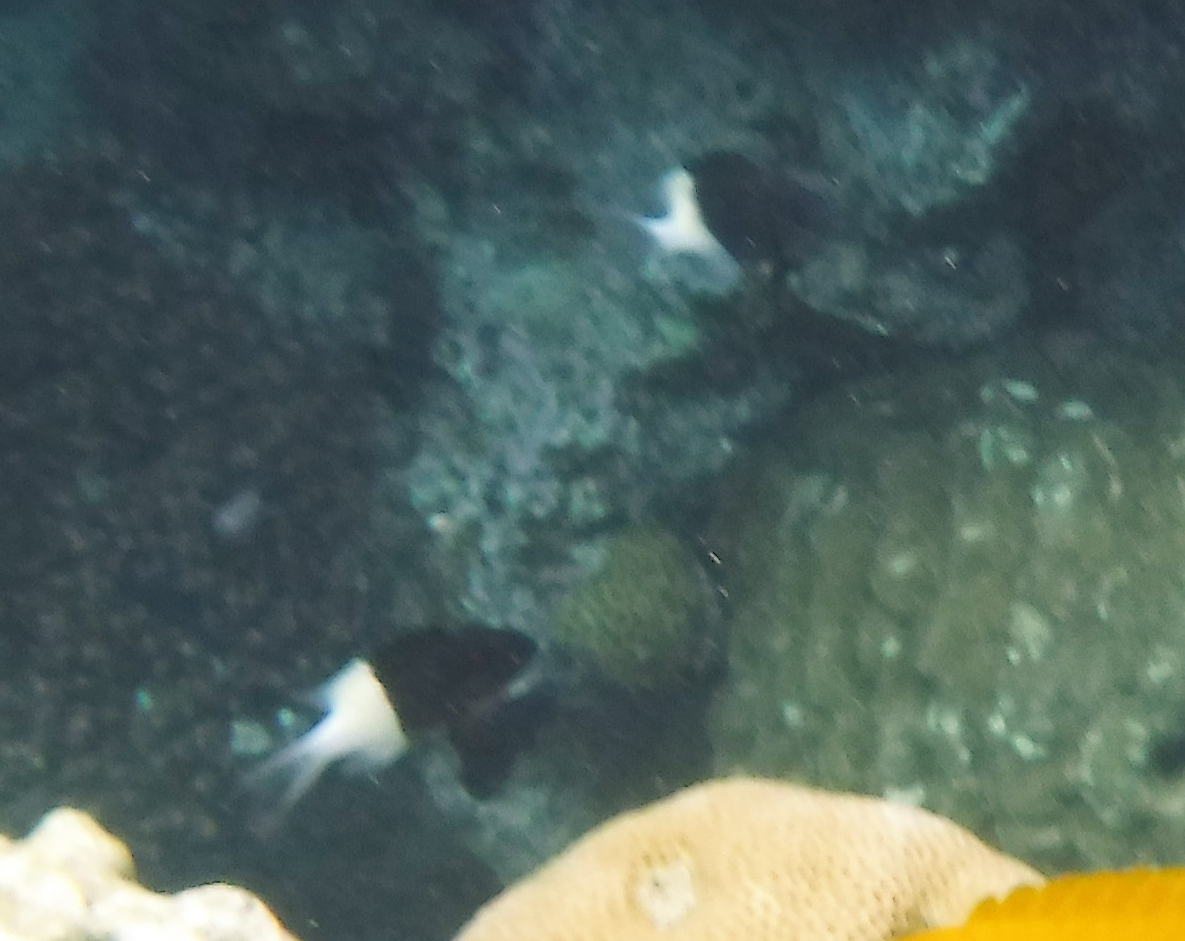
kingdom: Animalia
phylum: Chordata
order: Perciformes
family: Pomacentridae
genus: Chromis
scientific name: Chromis dimidiata
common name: Half-and-half chromis
